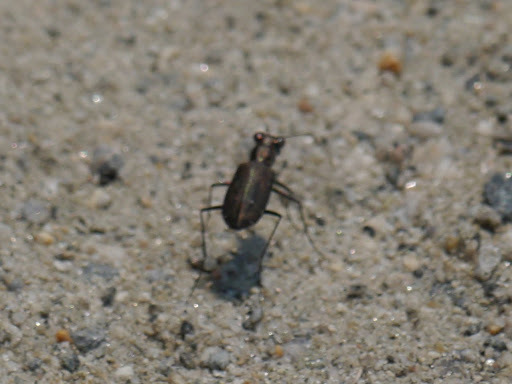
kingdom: Animalia
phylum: Arthropoda
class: Insecta
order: Coleoptera
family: Carabidae
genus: Cicindela
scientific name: Cicindela punctulata
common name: Punctured tiger beetle
